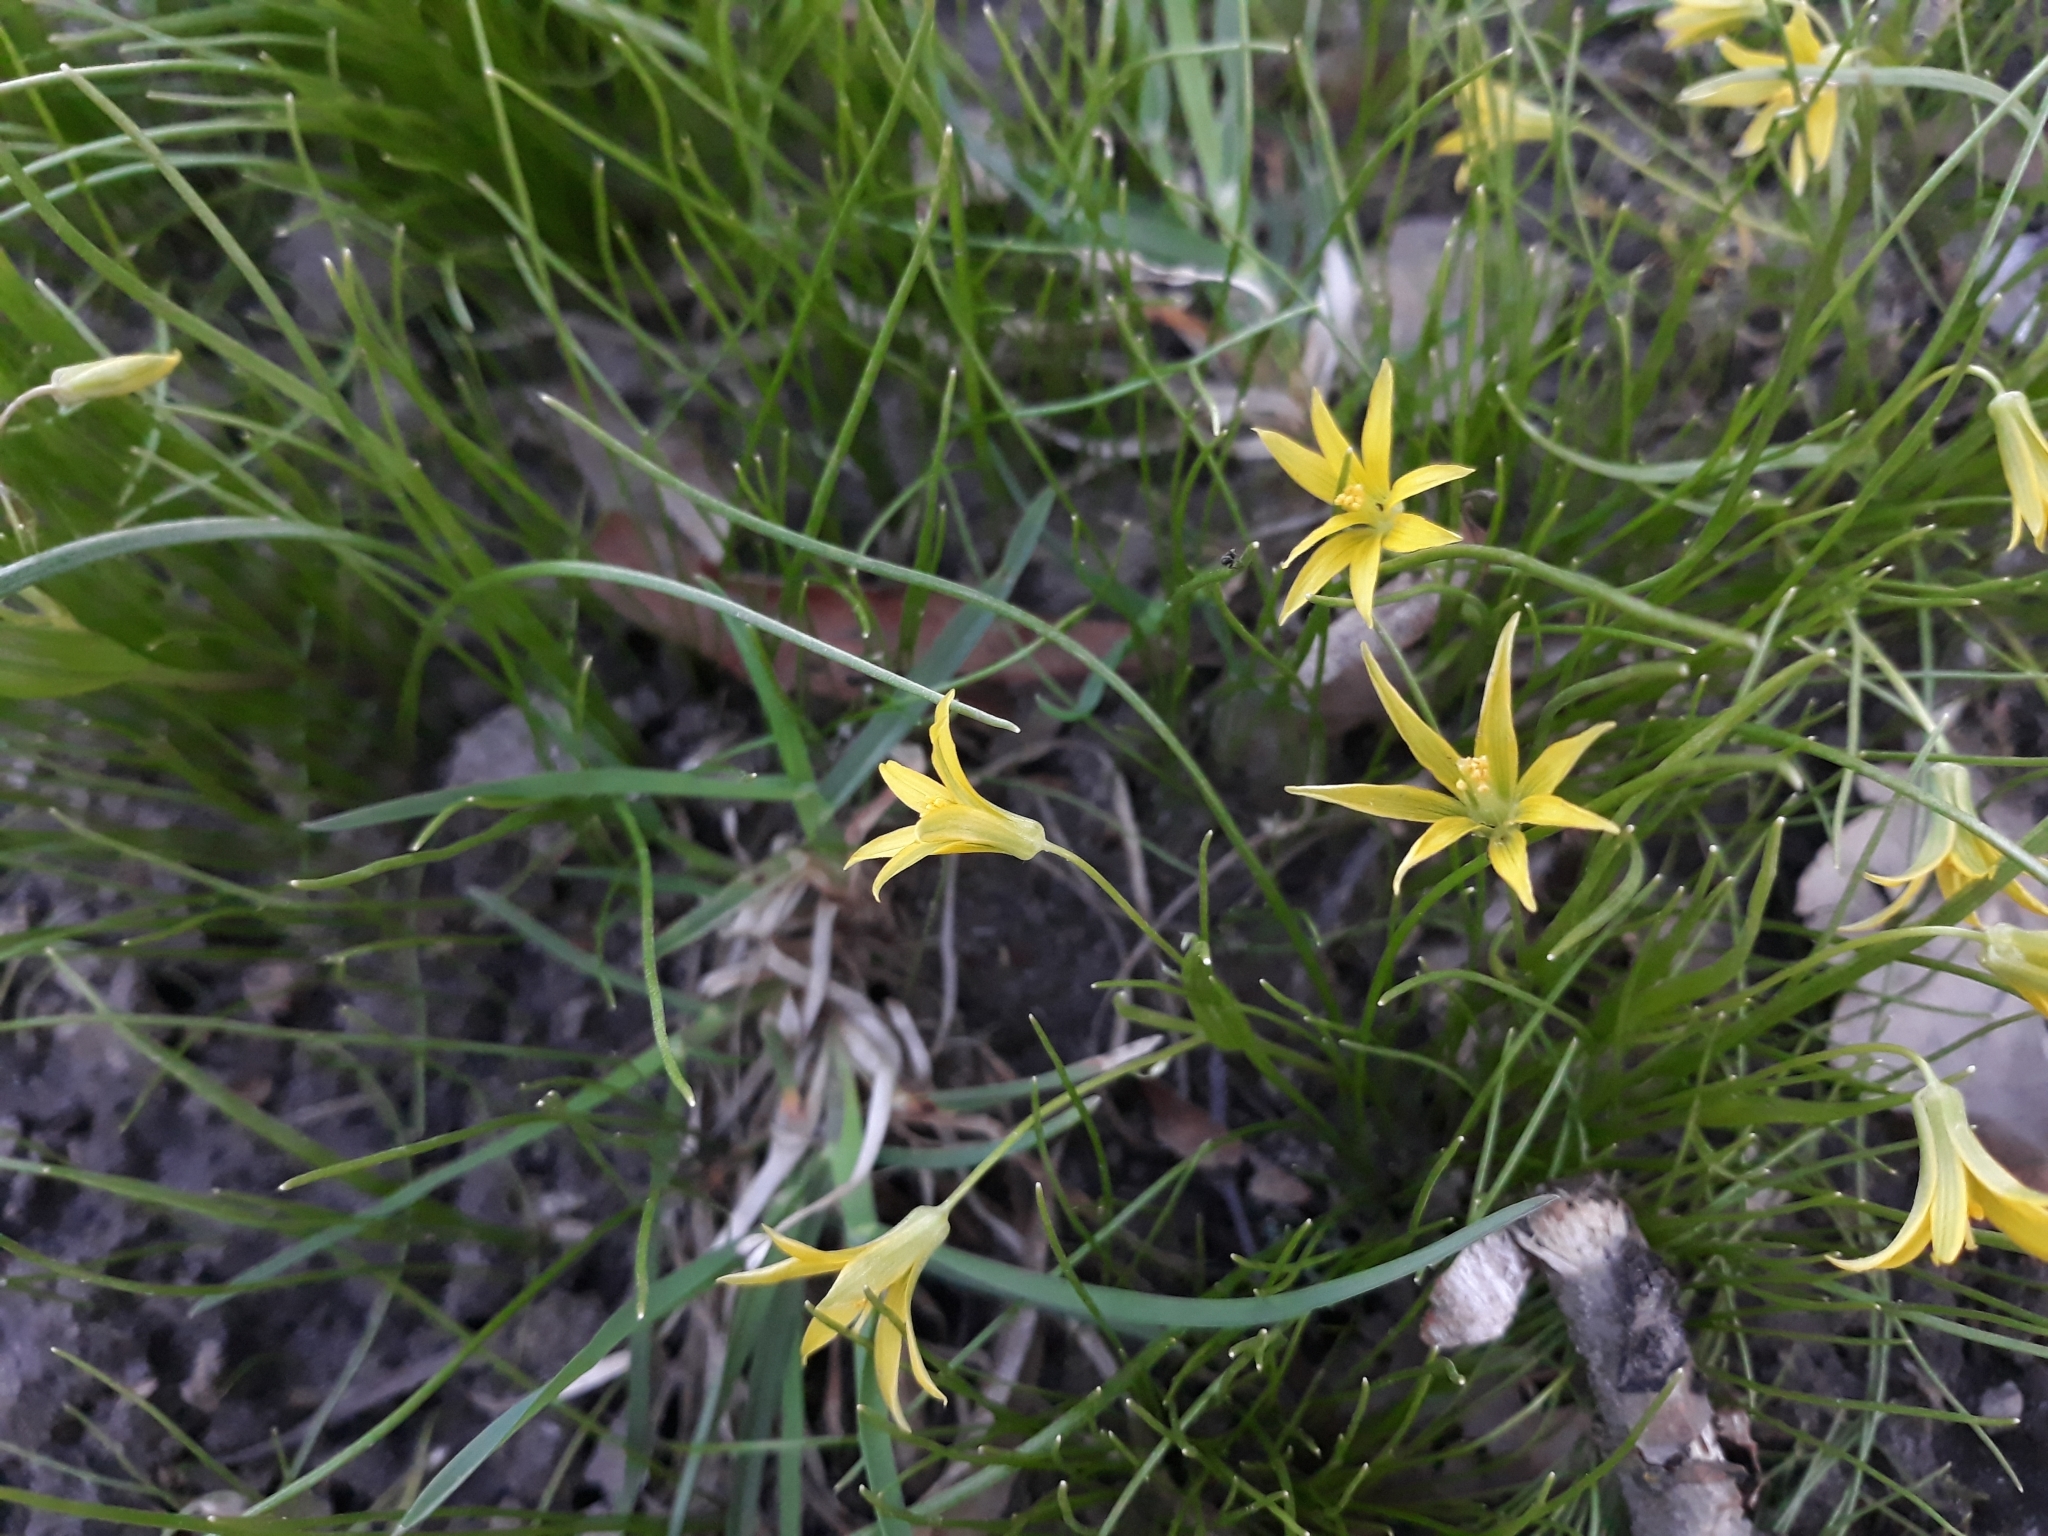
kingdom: Plantae
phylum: Tracheophyta
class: Liliopsida
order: Liliales
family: Liliaceae
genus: Gagea
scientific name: Gagea minima
